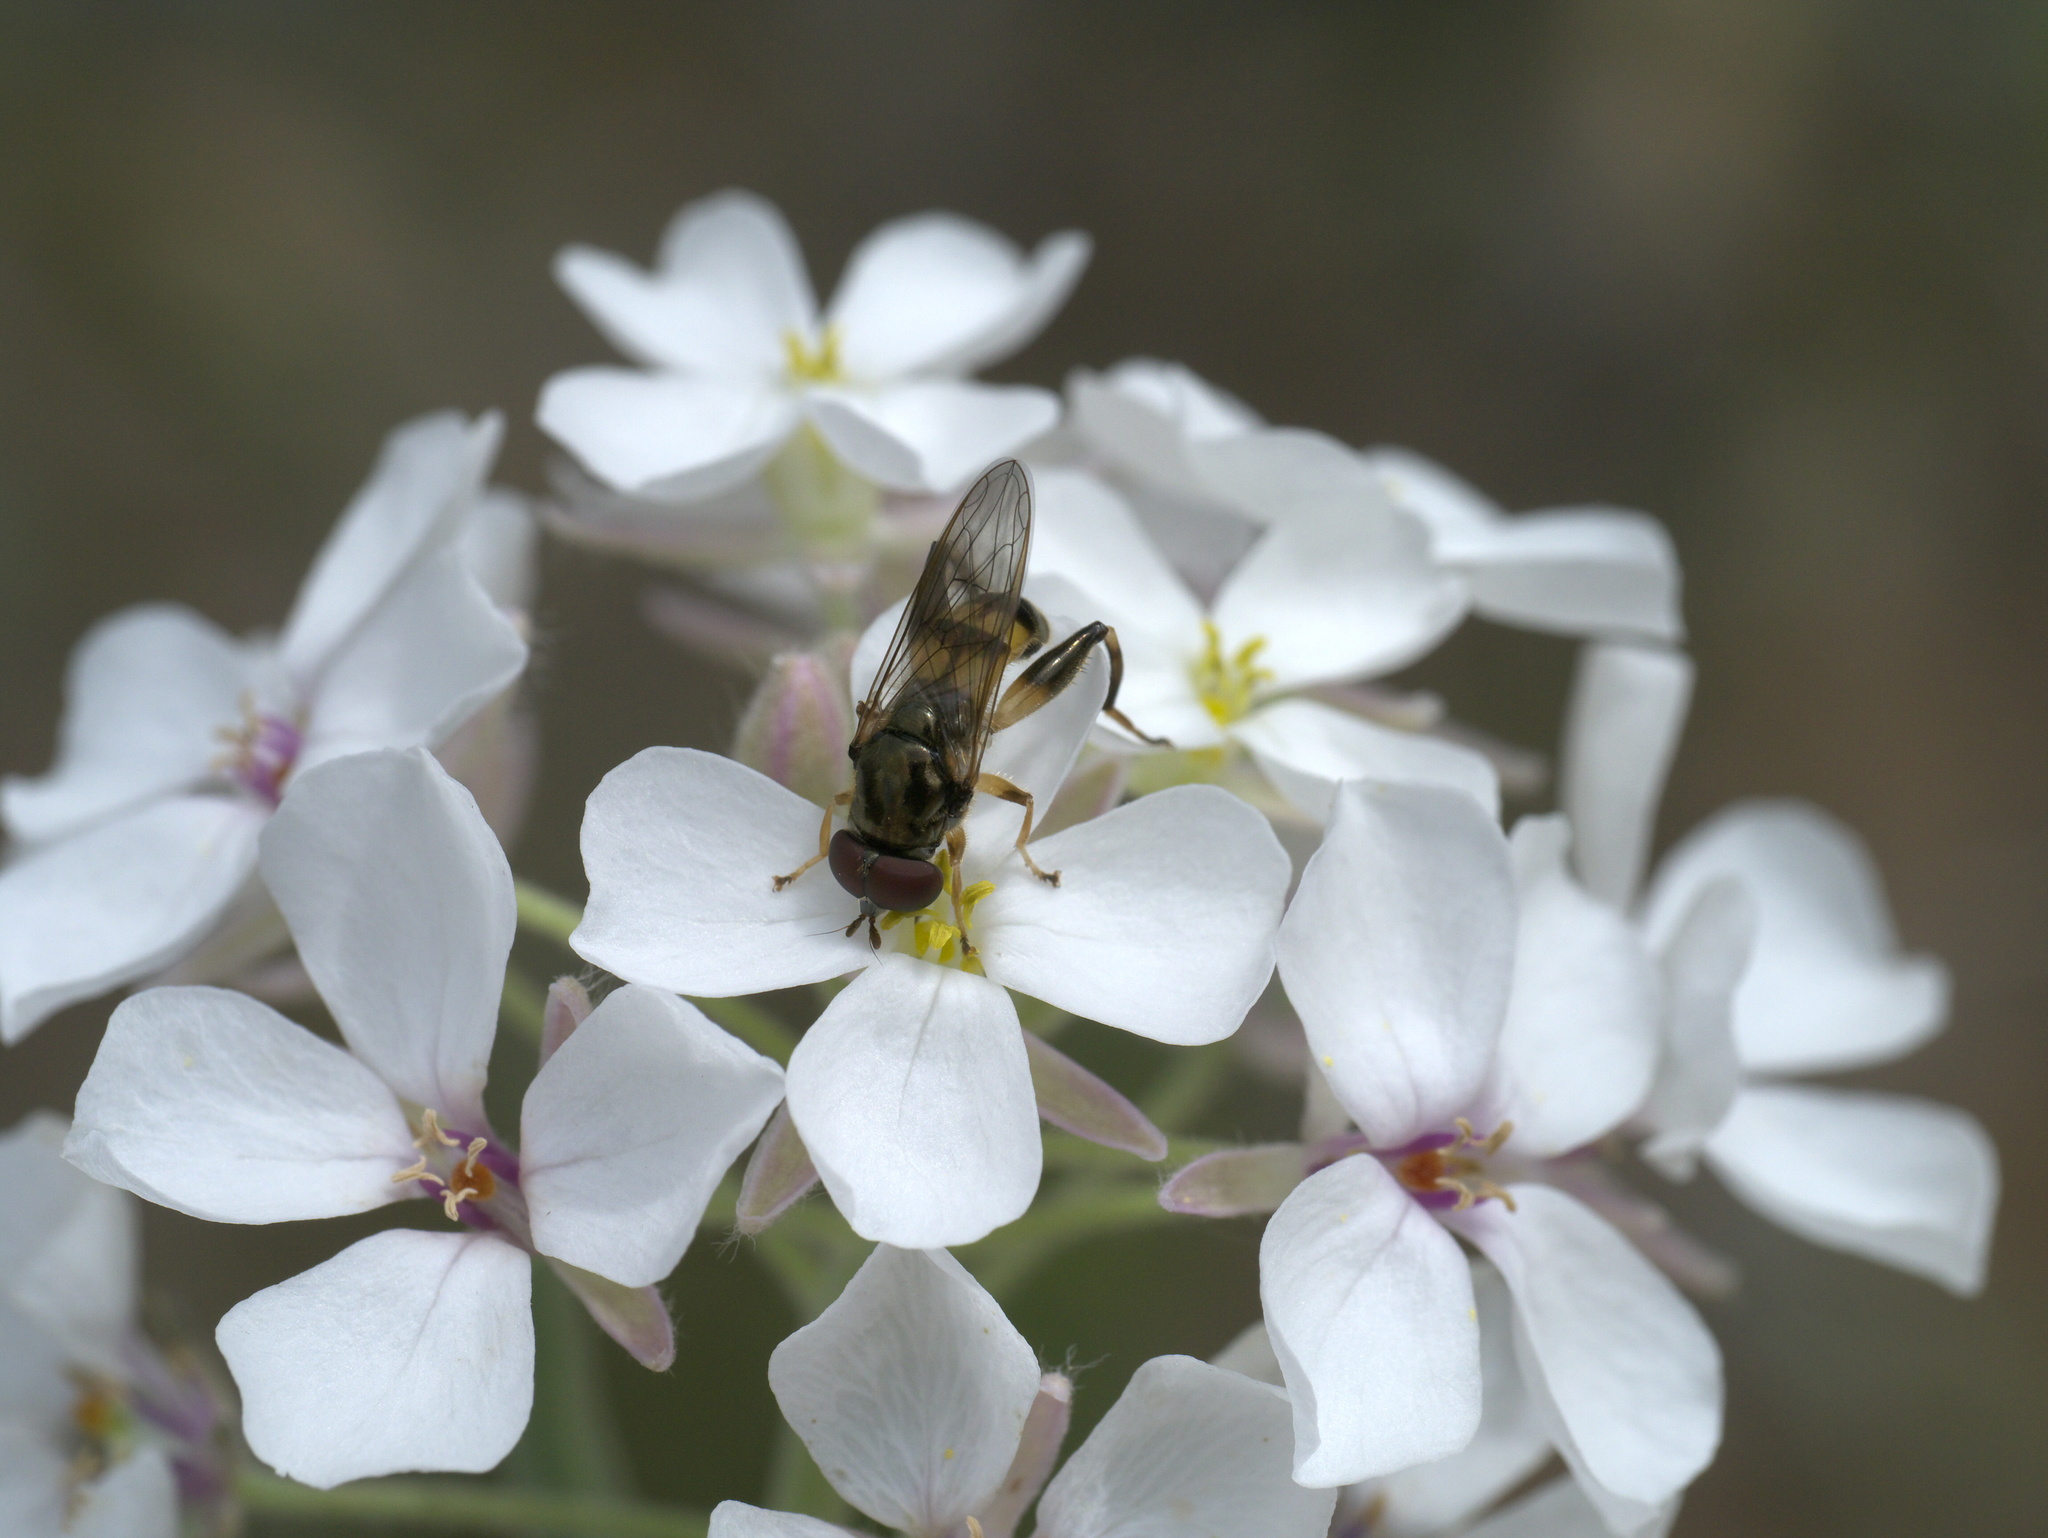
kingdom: Plantae
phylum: Tracheophyta
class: Magnoliopsida
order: Brassicales
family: Brassicaceae
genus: Dimorphocarpa
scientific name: Dimorphocarpa candicans
